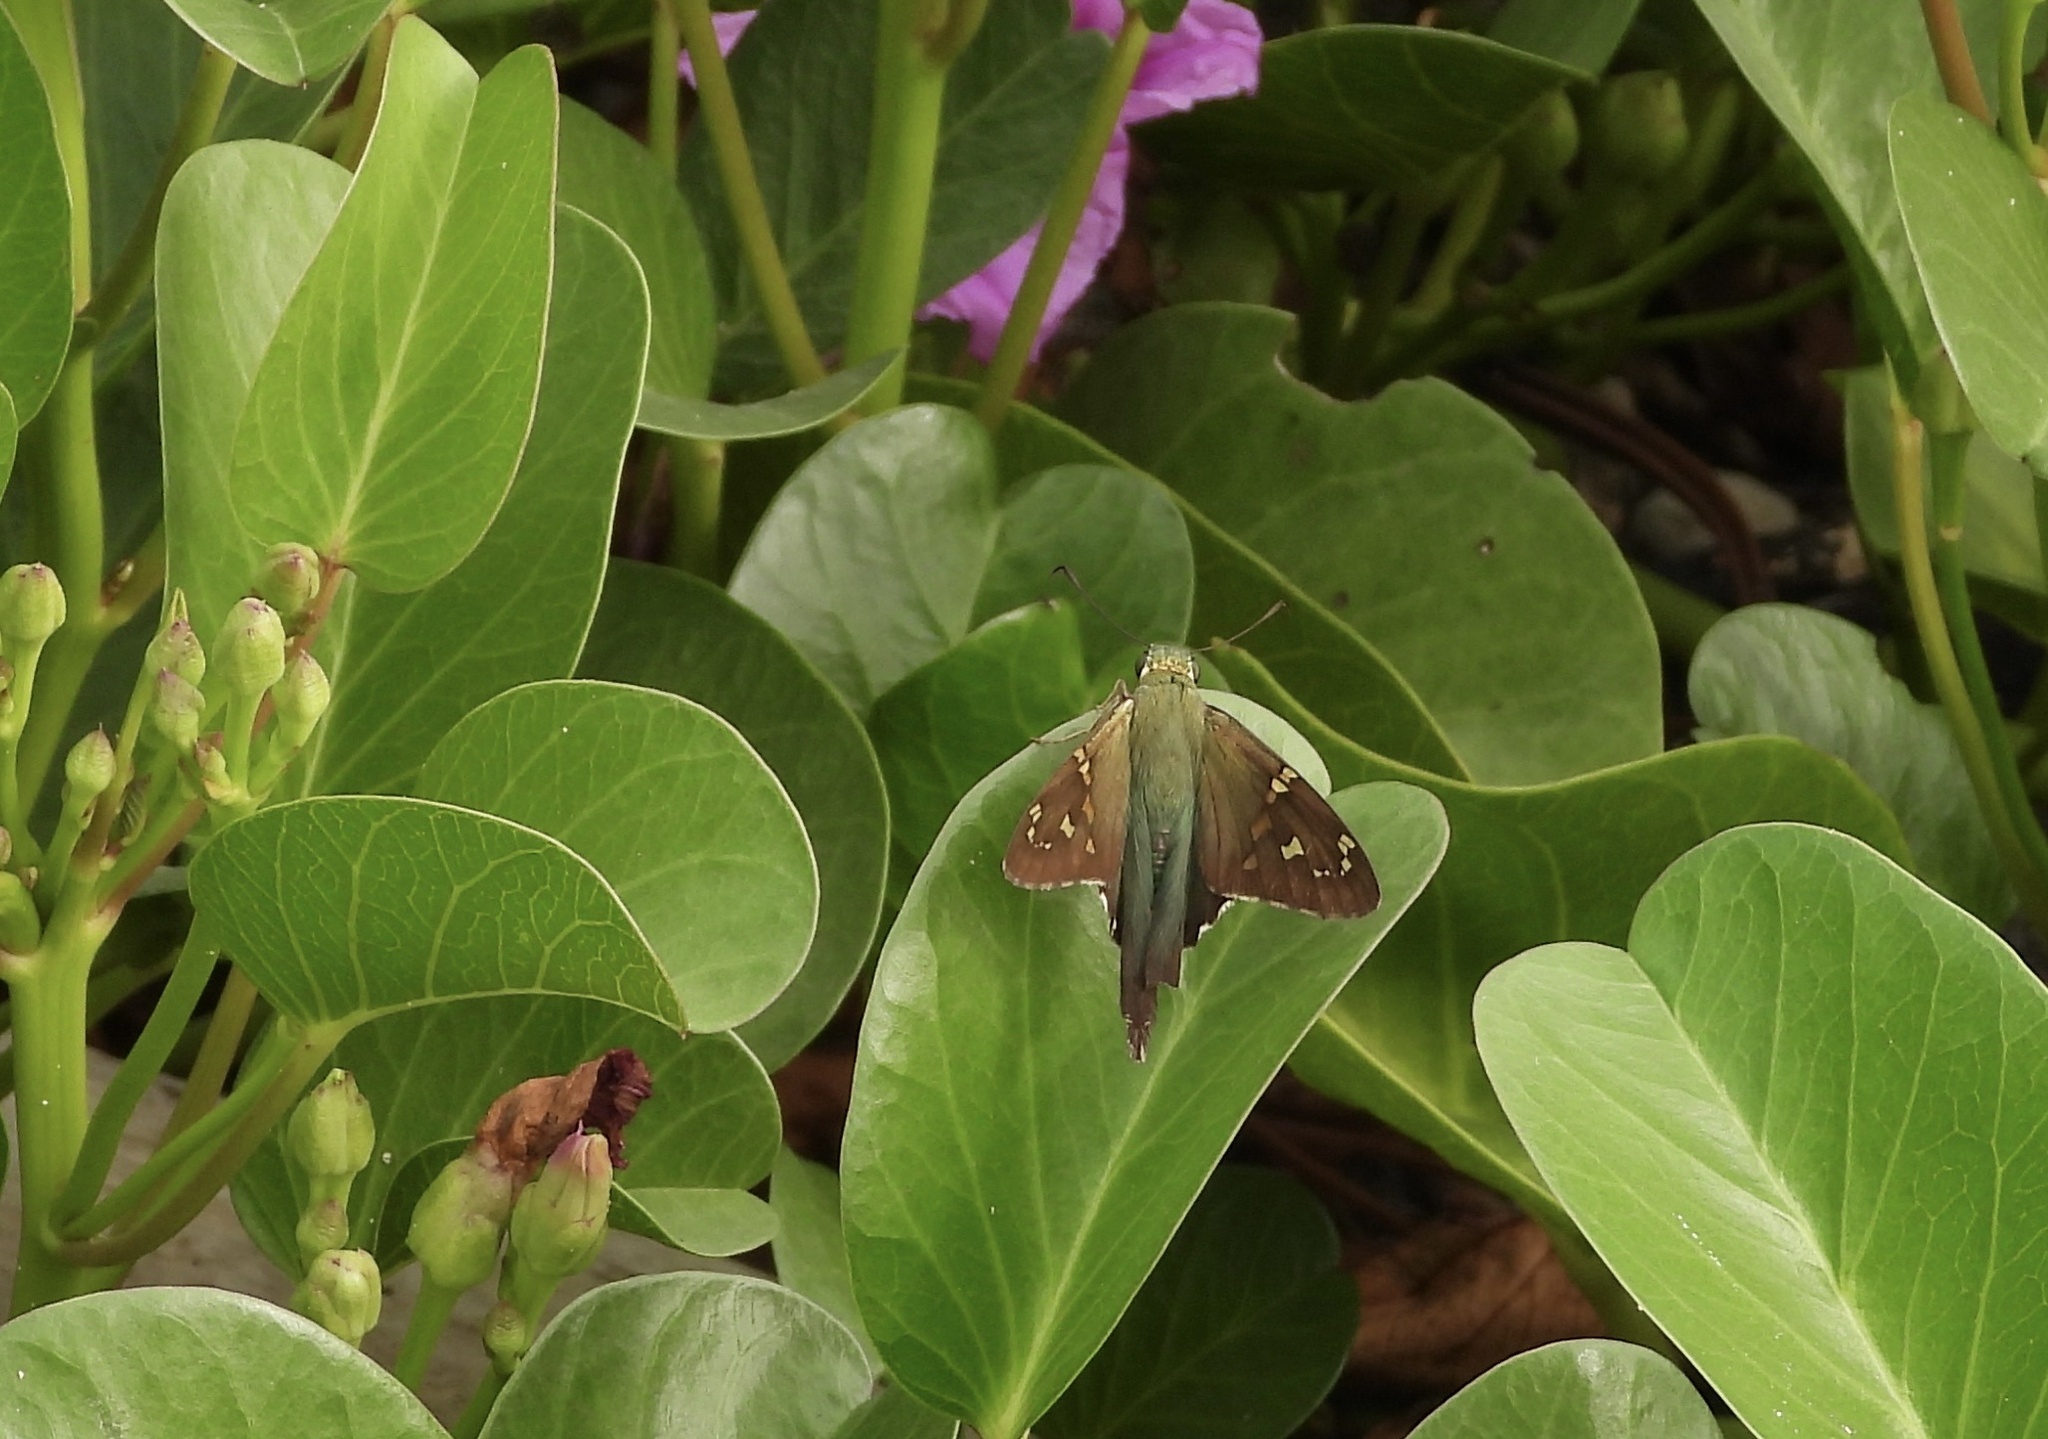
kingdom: Animalia
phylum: Arthropoda
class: Insecta
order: Lepidoptera
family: Hesperiidae
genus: Urbanus
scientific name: Urbanus proteus
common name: Long-tailed skipper
